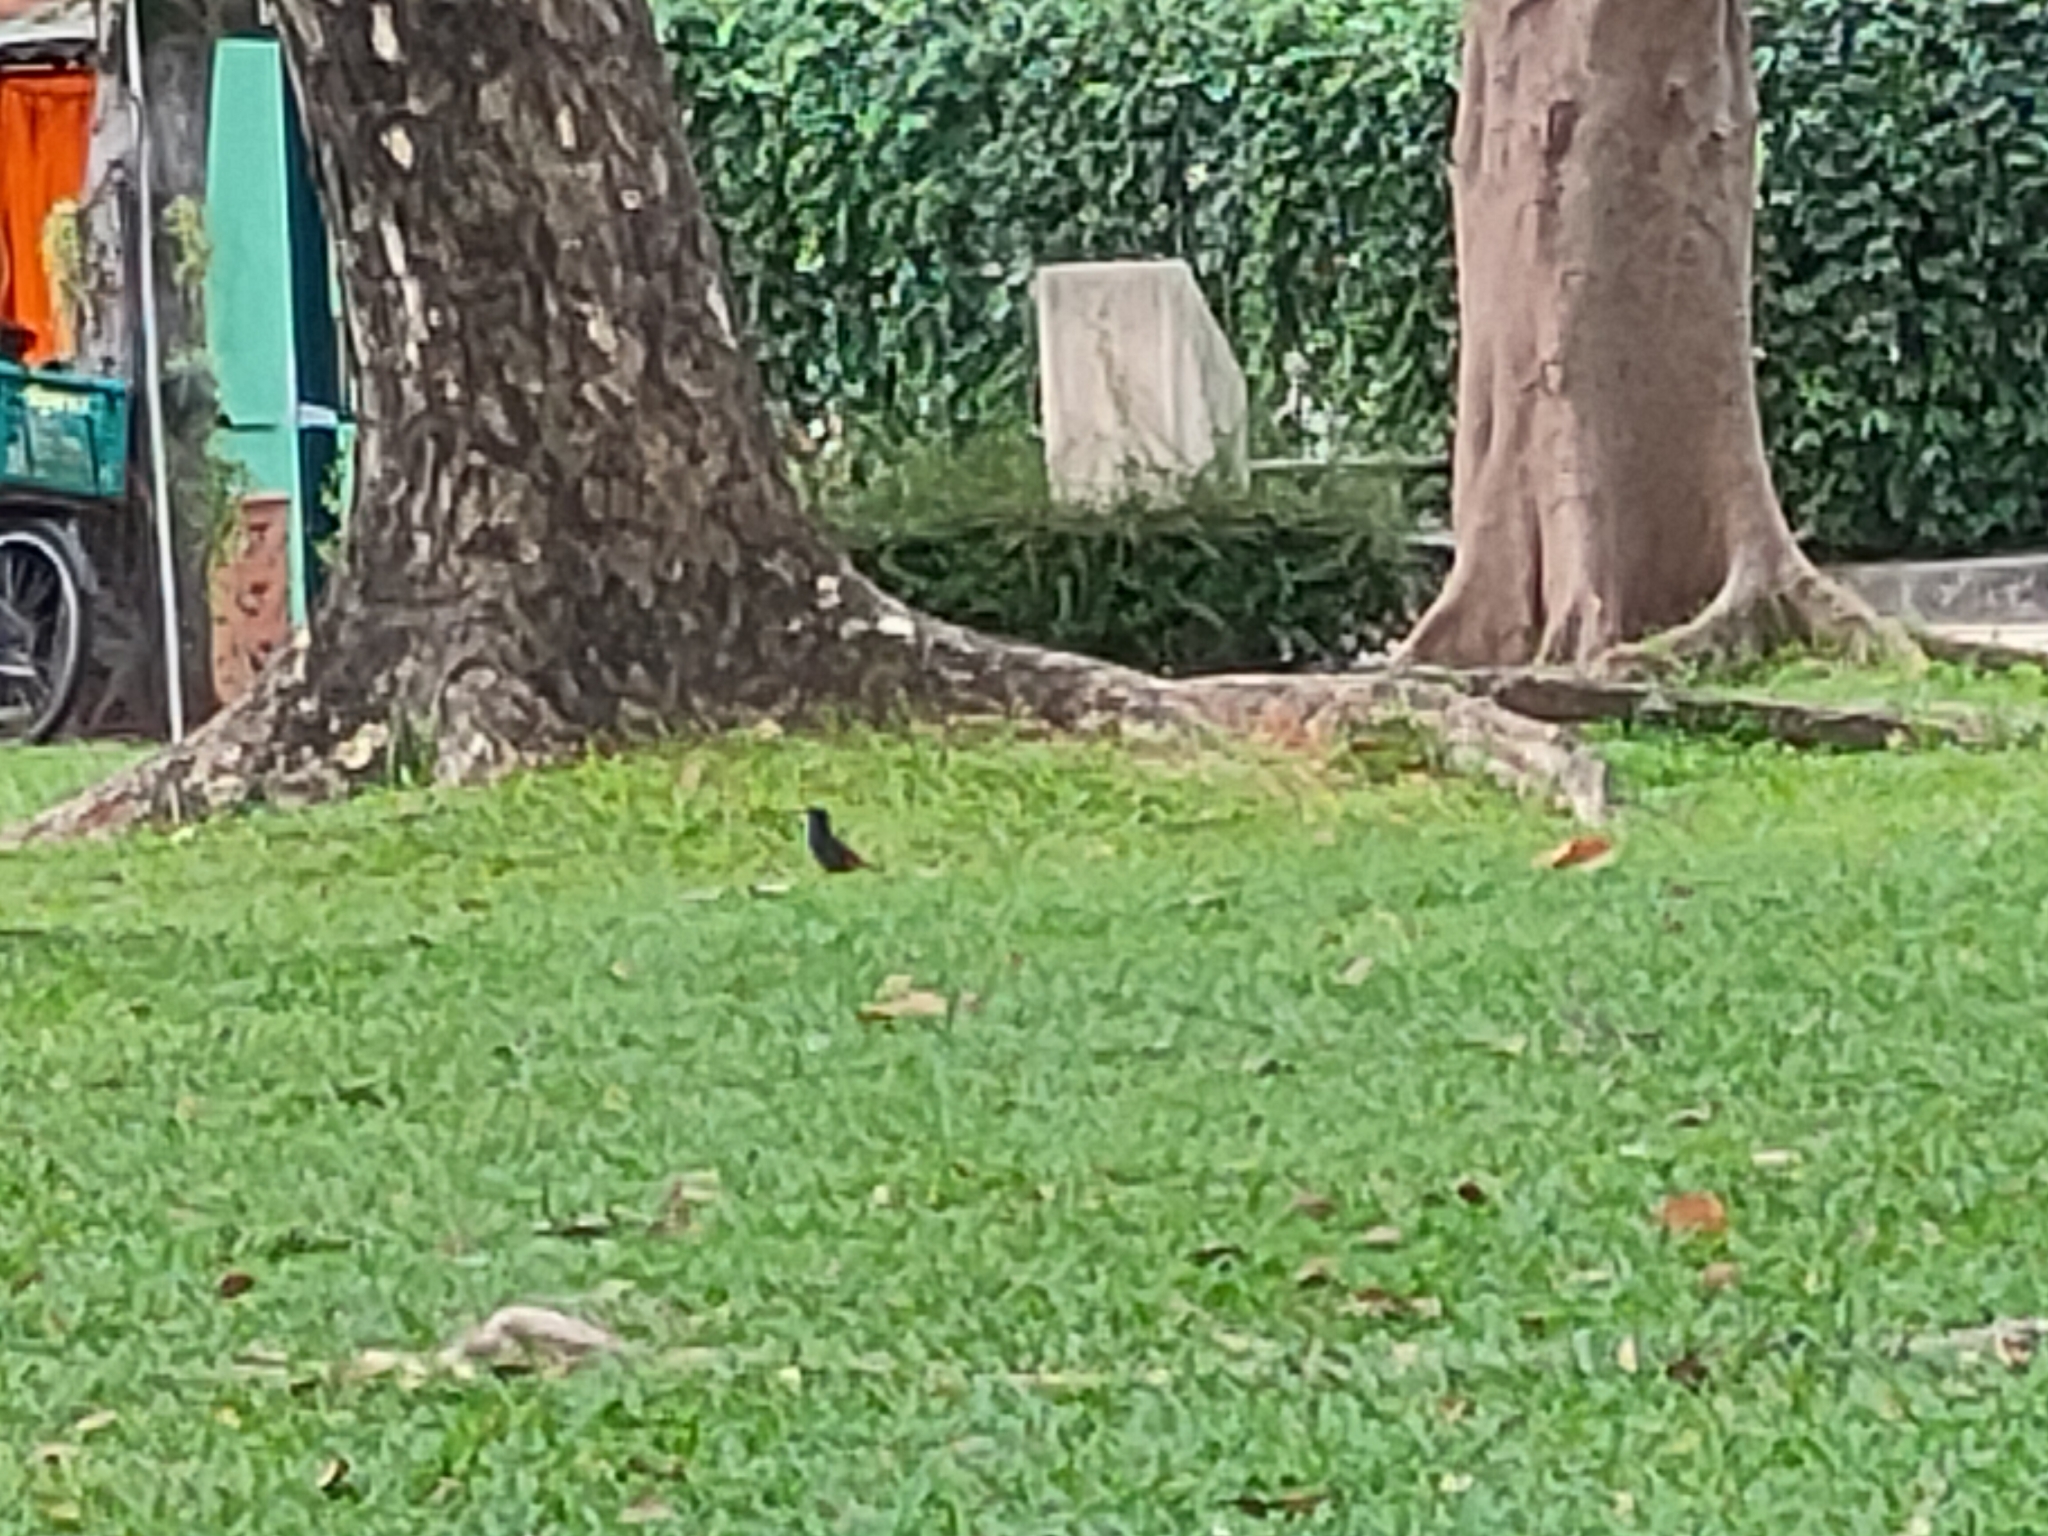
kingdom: Animalia
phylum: Chordata
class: Aves
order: Passeriformes
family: Sturnidae
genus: Acridotheres
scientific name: Acridotheres grandis
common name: Great myna
